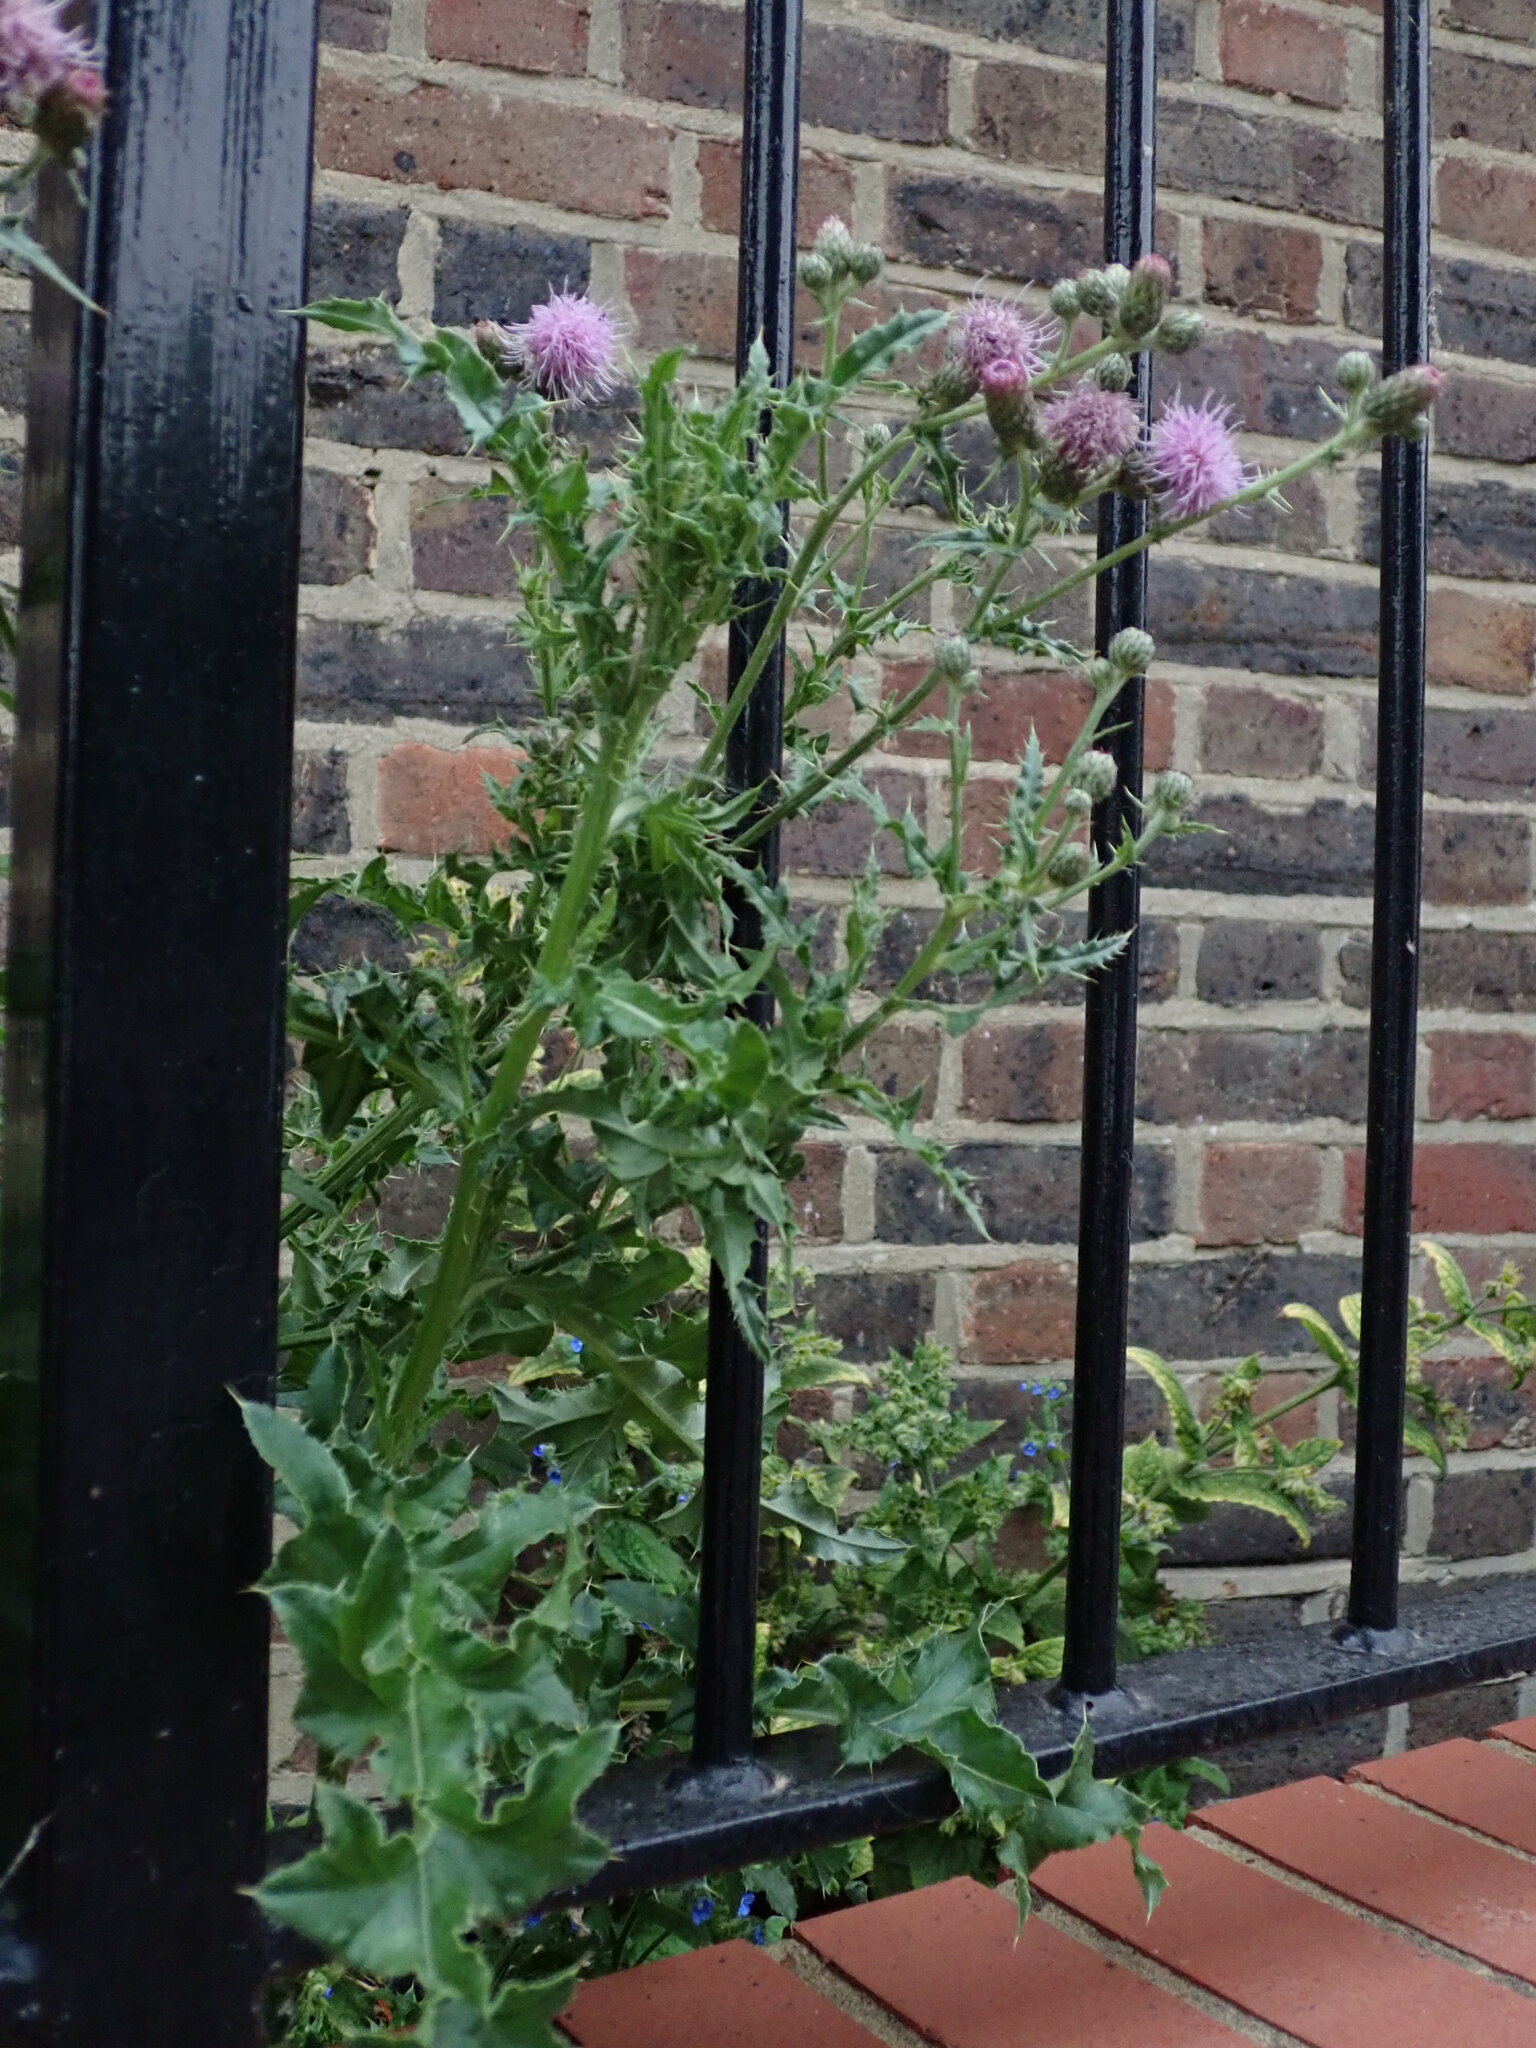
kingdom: Plantae
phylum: Tracheophyta
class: Magnoliopsida
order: Asterales
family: Asteraceae
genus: Cirsium
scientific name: Cirsium arvense
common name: Creeping thistle
